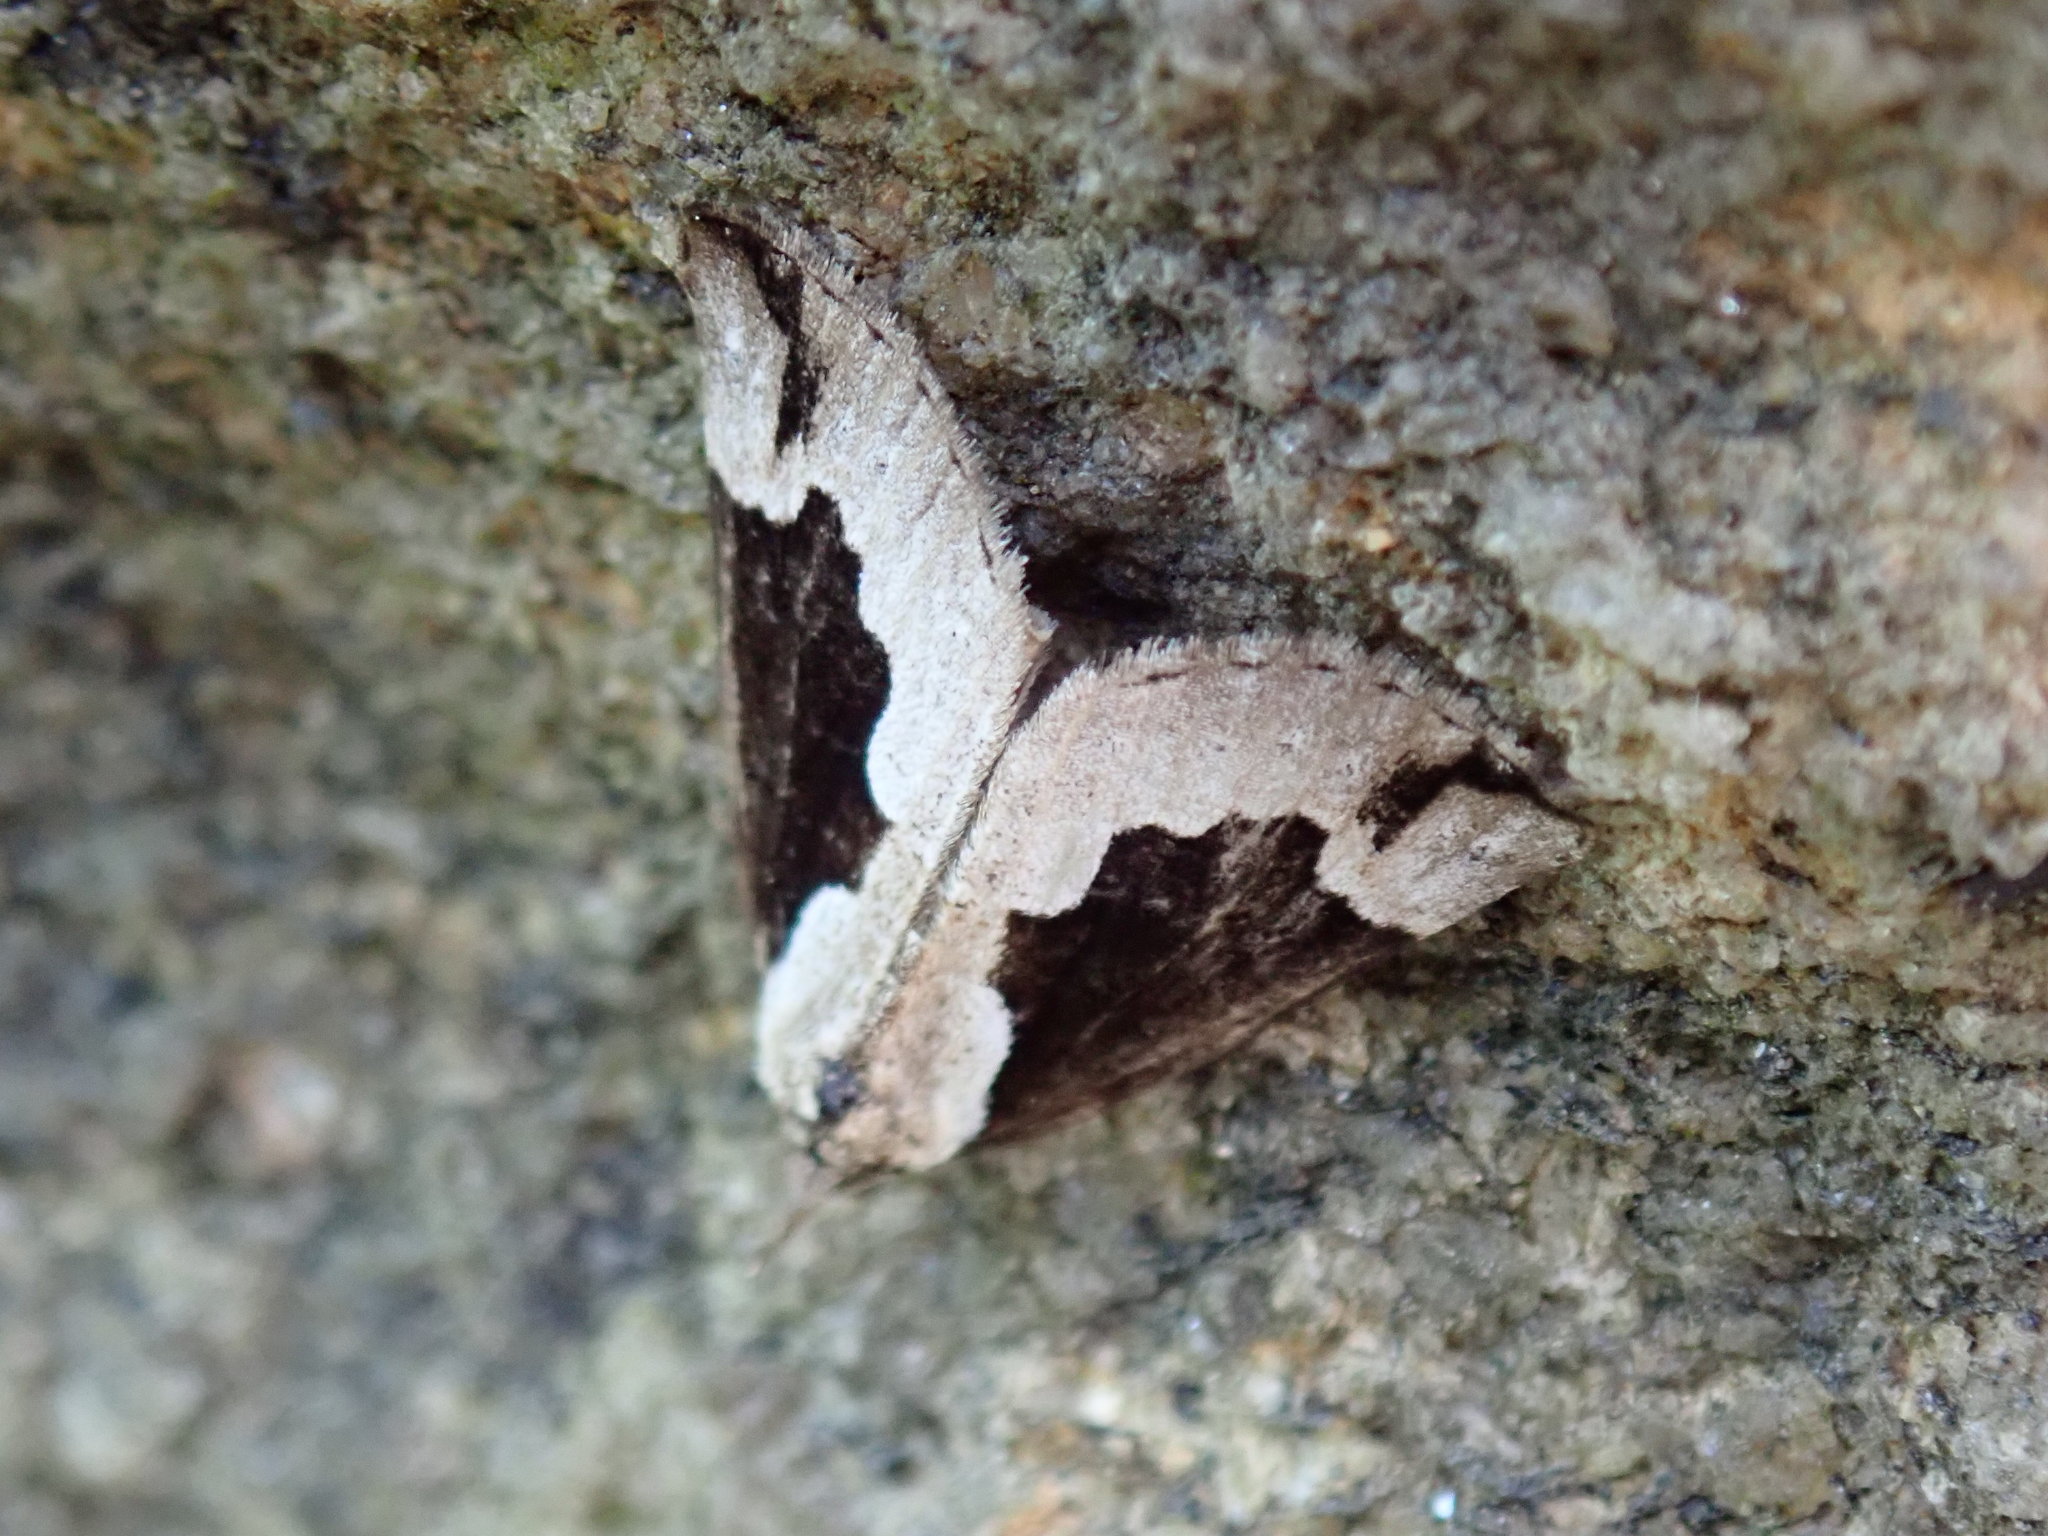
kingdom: Animalia
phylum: Arthropoda
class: Insecta
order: Lepidoptera
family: Erebidae
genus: Hypena
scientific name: Hypena baltimoralis
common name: Baltimore snout
